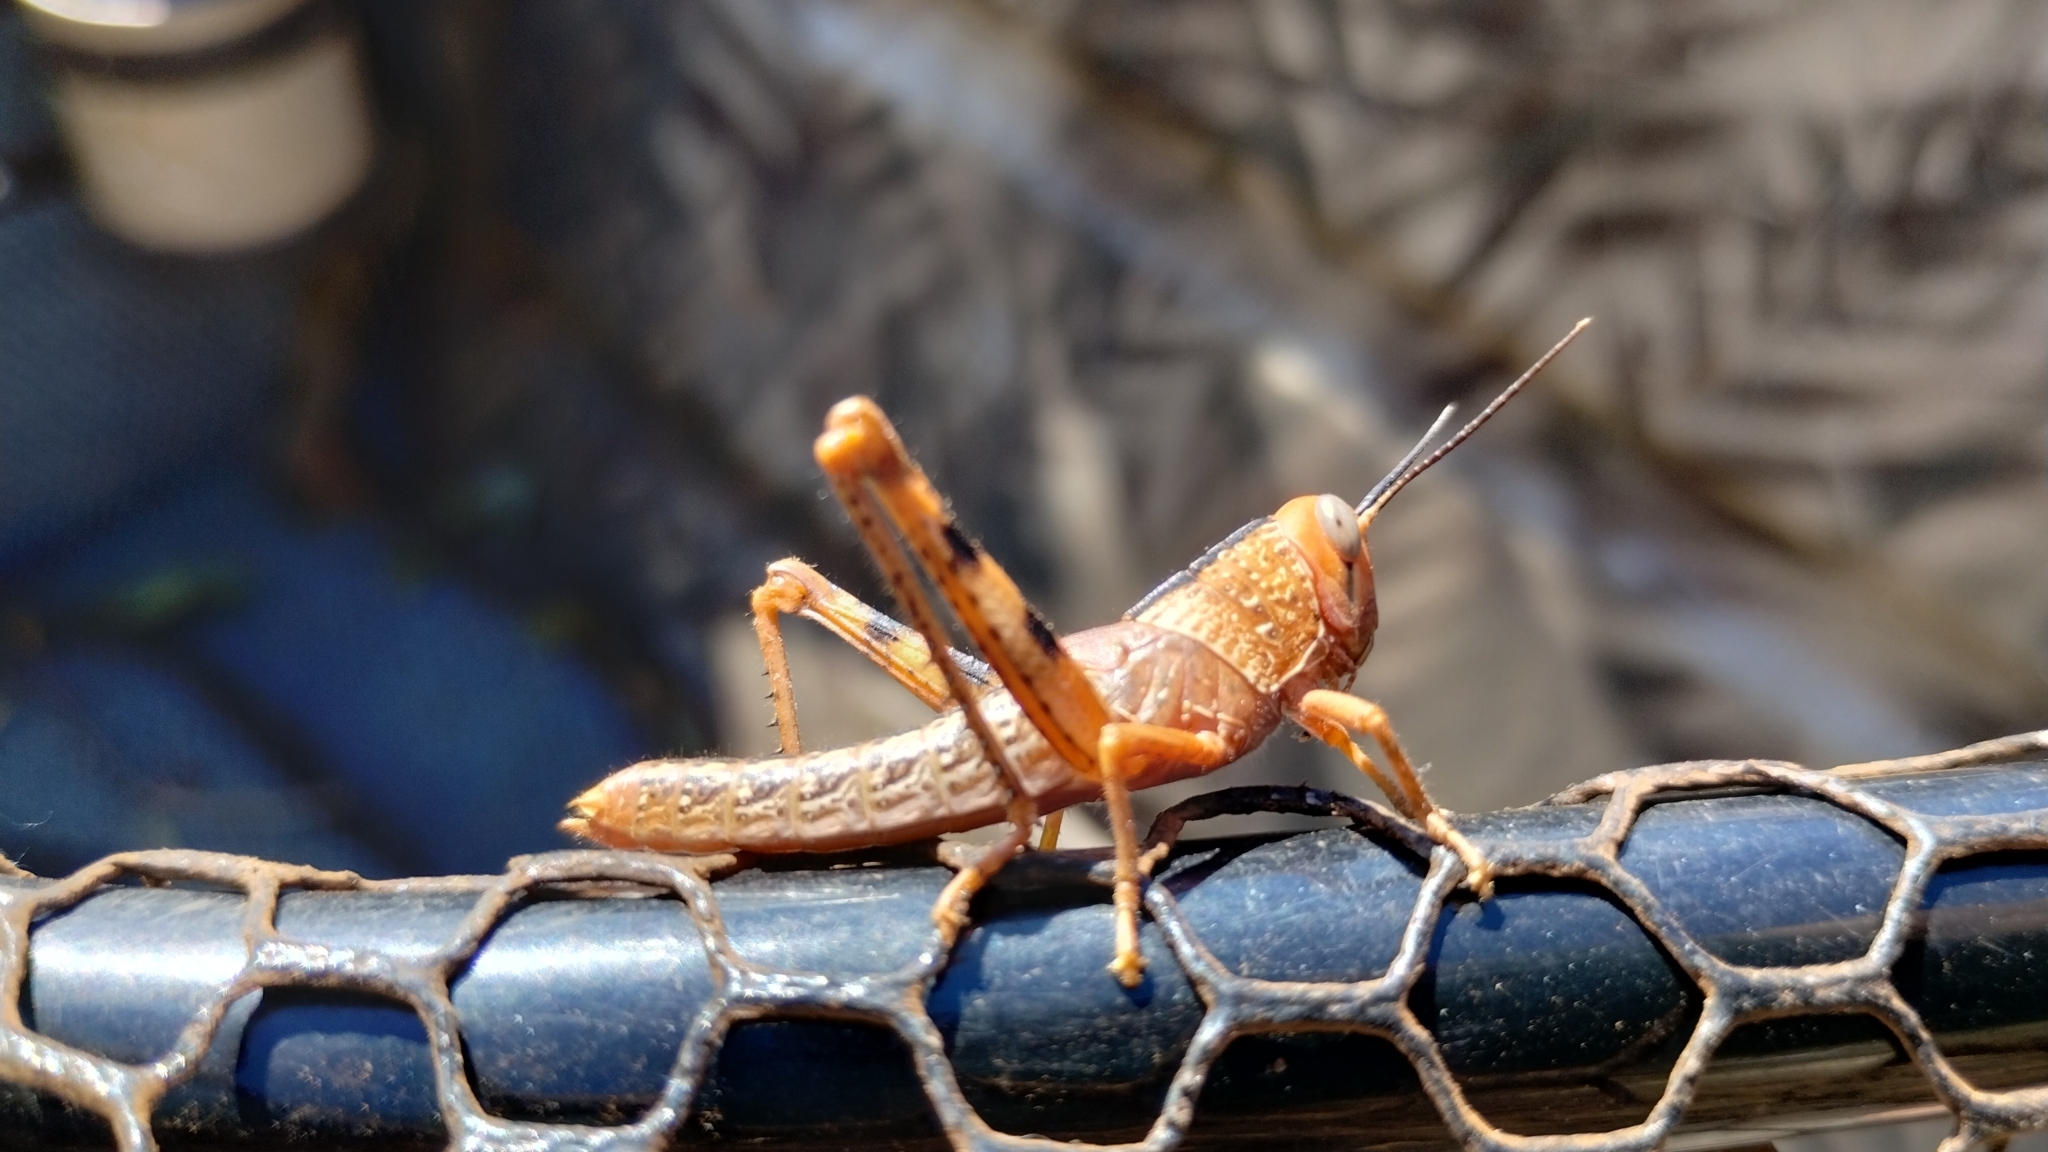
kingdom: Animalia
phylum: Arthropoda
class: Insecta
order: Orthoptera
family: Acrididae
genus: Valanga
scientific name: Valanga irregularis
